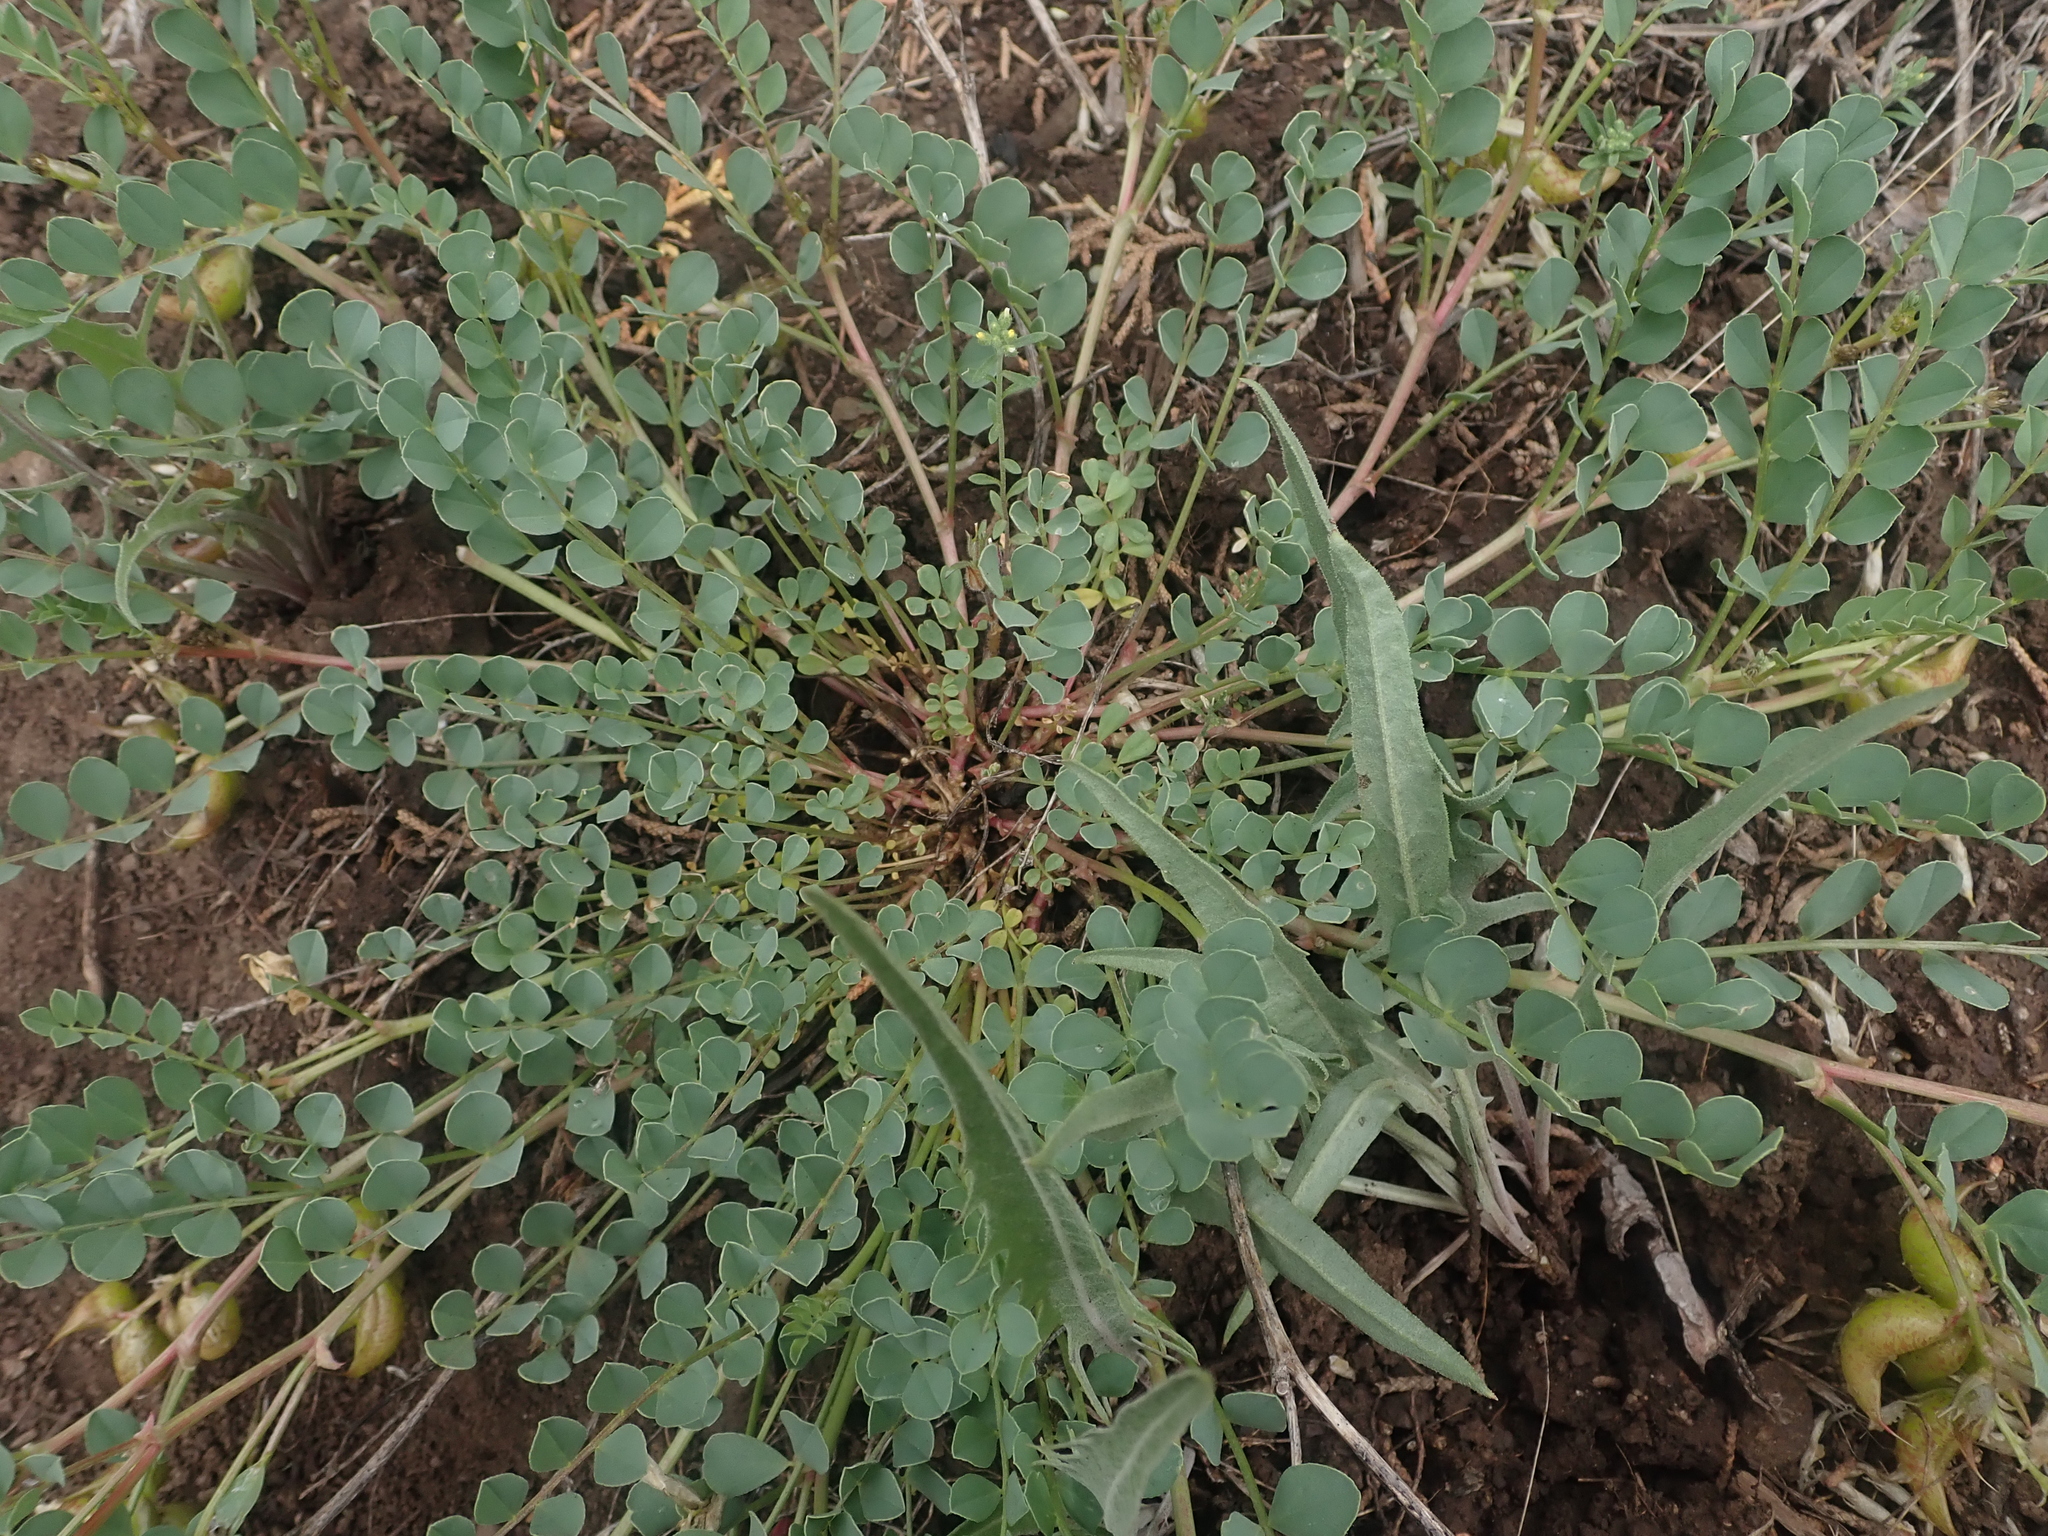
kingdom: Plantae
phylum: Tracheophyta
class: Magnoliopsida
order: Fabales
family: Fabaceae
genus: Astragalus
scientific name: Astragalus lentiginosus
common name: Freckled milkvetch
